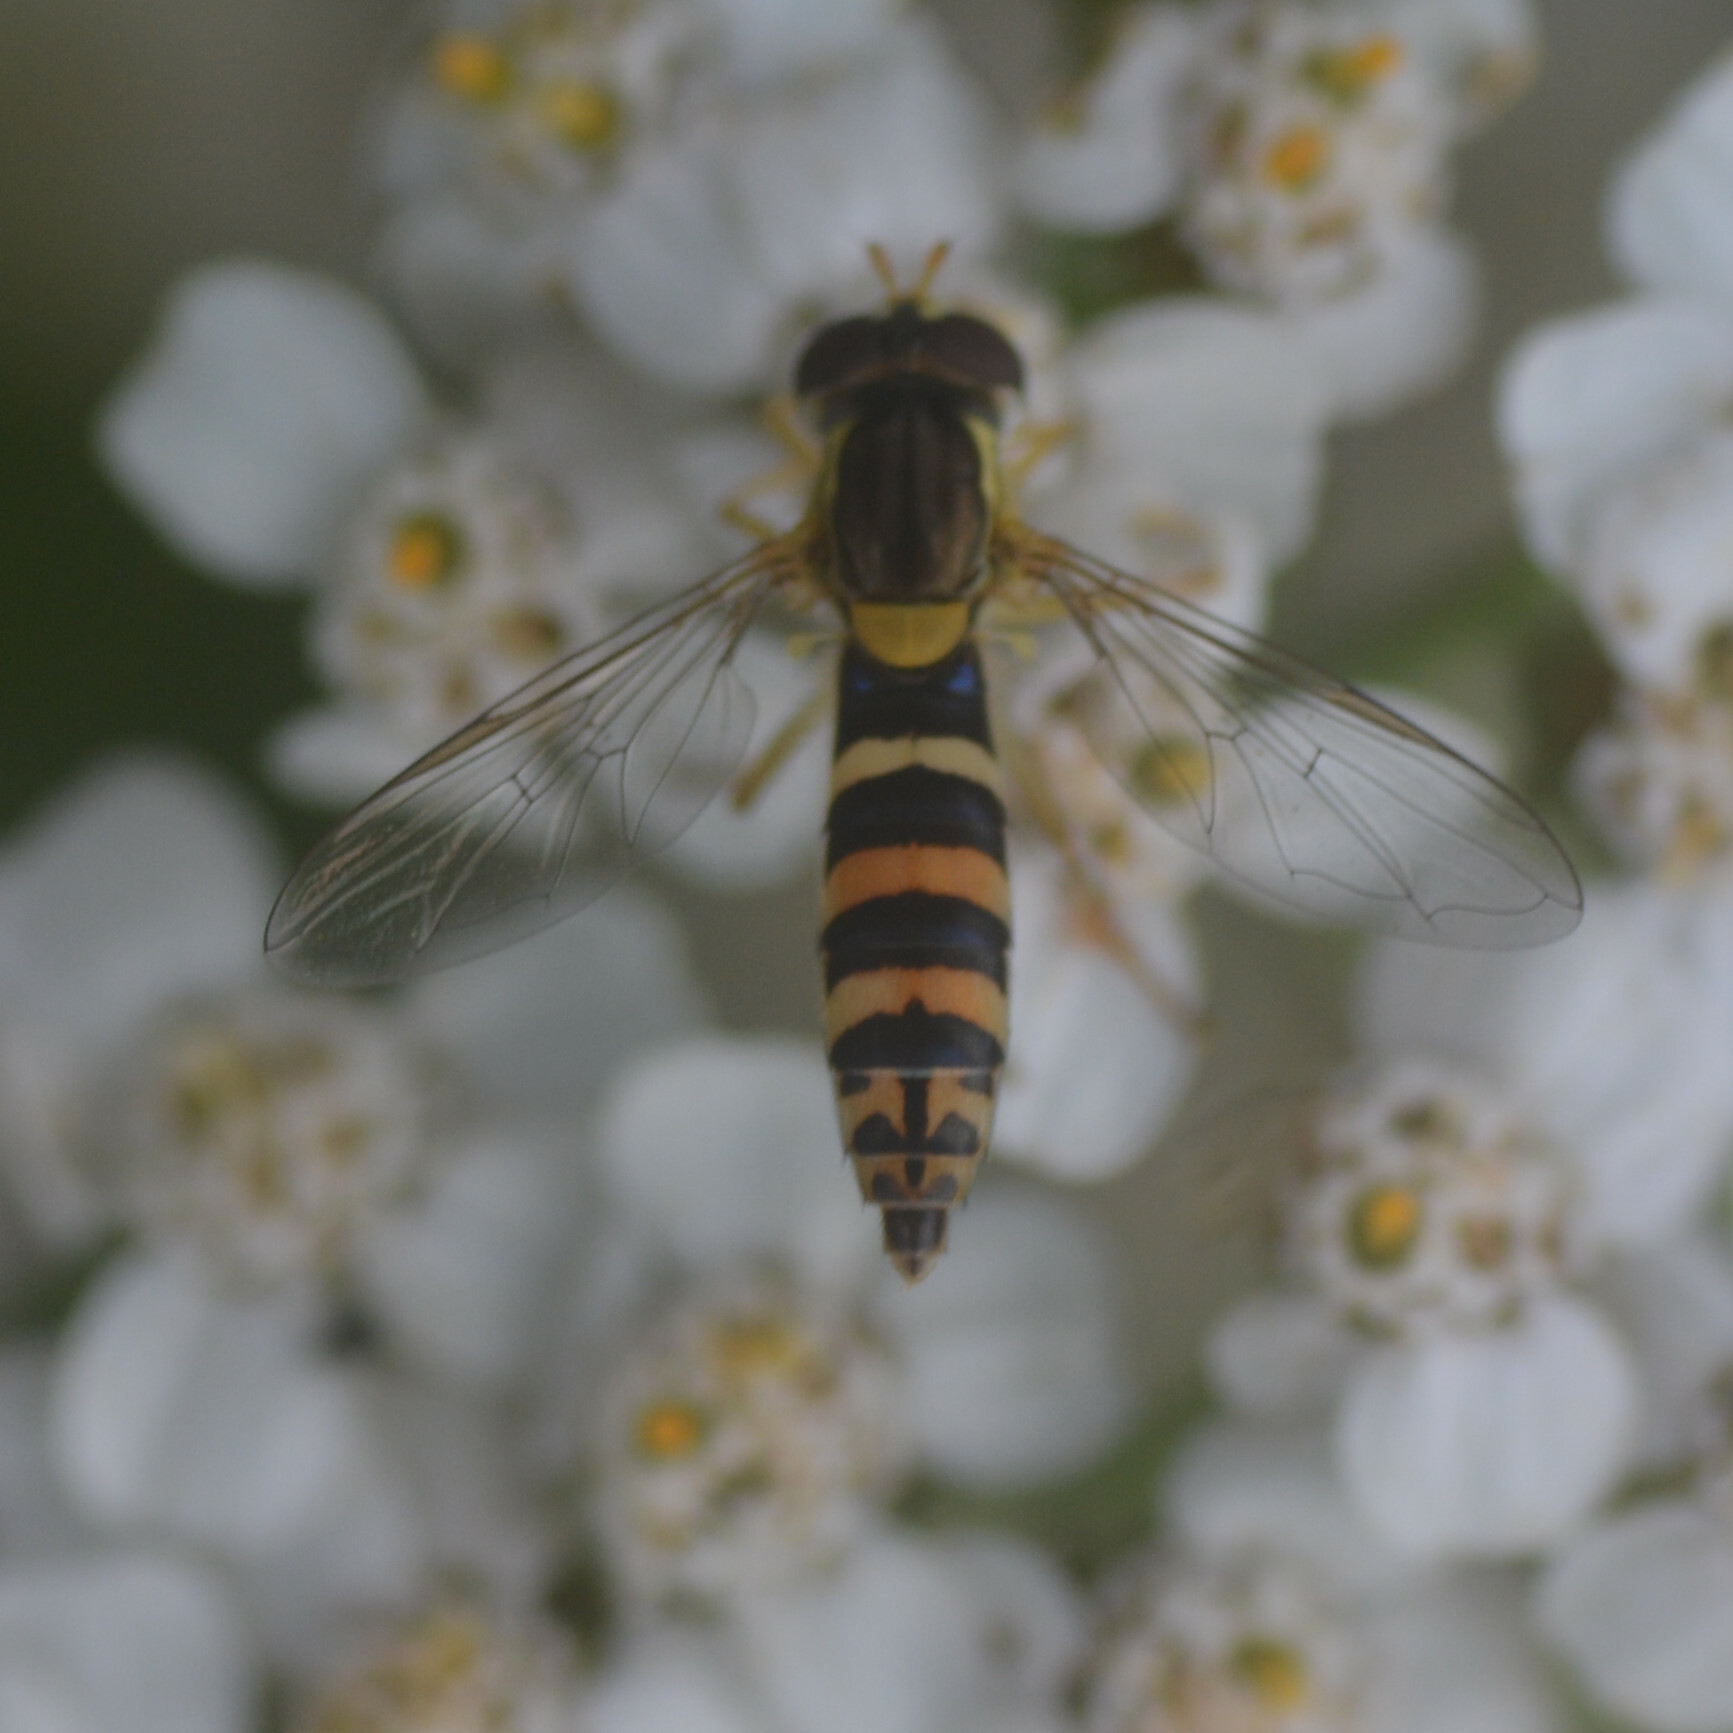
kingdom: Animalia
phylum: Arthropoda
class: Insecta
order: Diptera
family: Syrphidae
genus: Sphaerophoria
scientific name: Sphaerophoria
